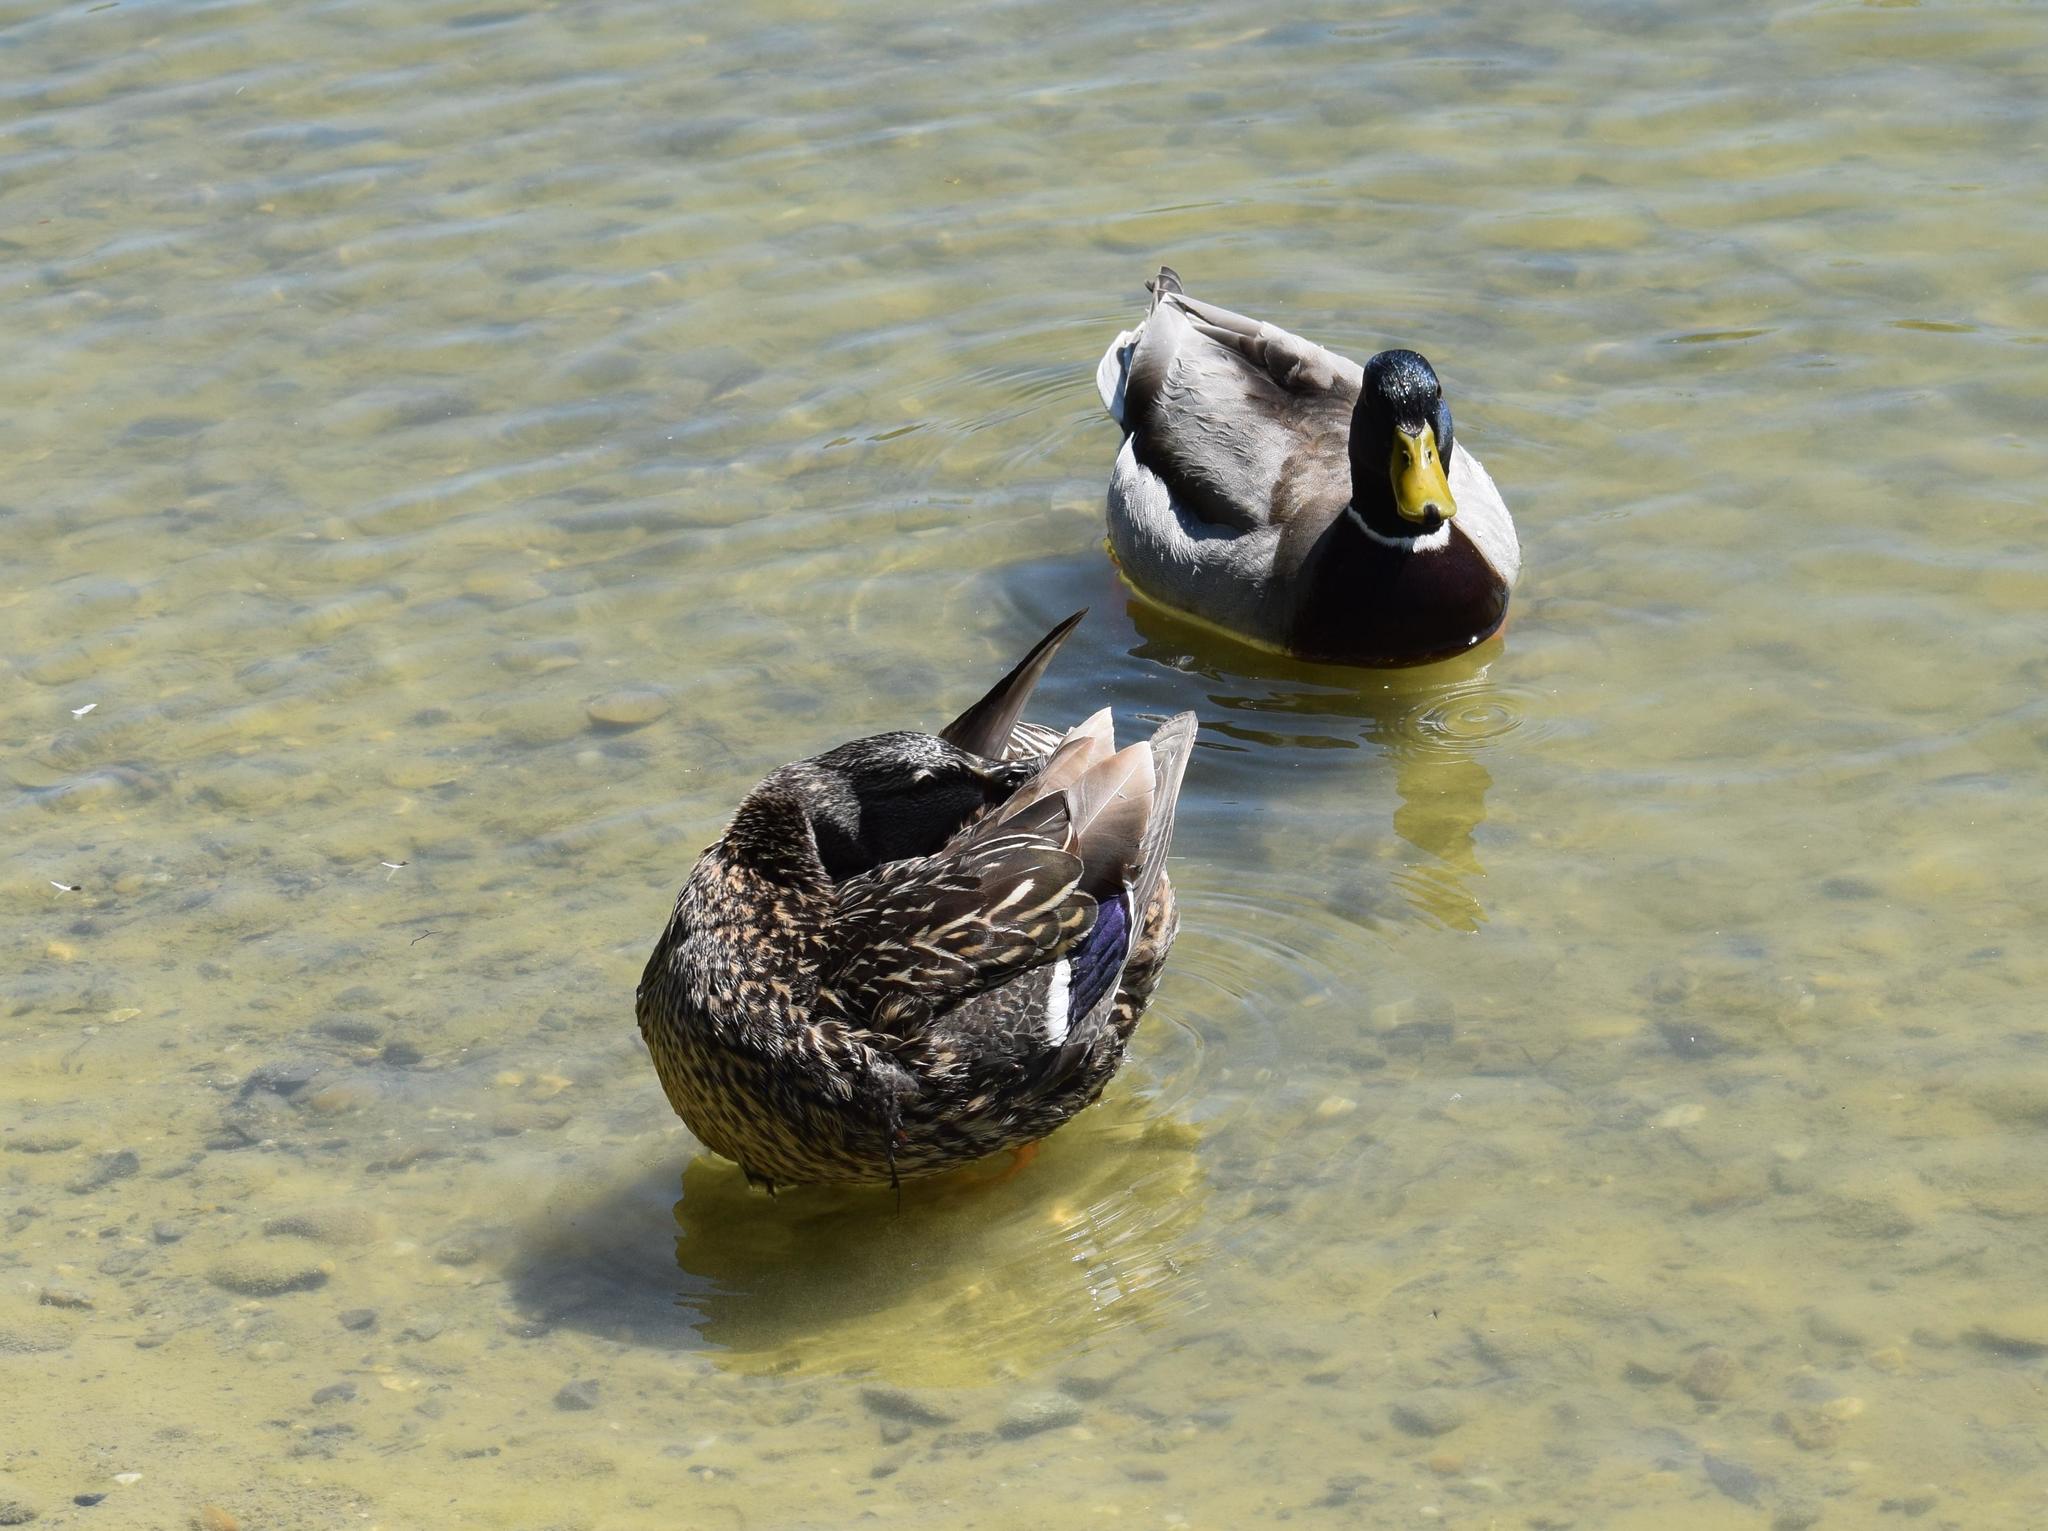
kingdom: Animalia
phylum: Chordata
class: Aves
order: Anseriformes
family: Anatidae
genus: Anas
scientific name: Anas platyrhynchos
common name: Mallard
